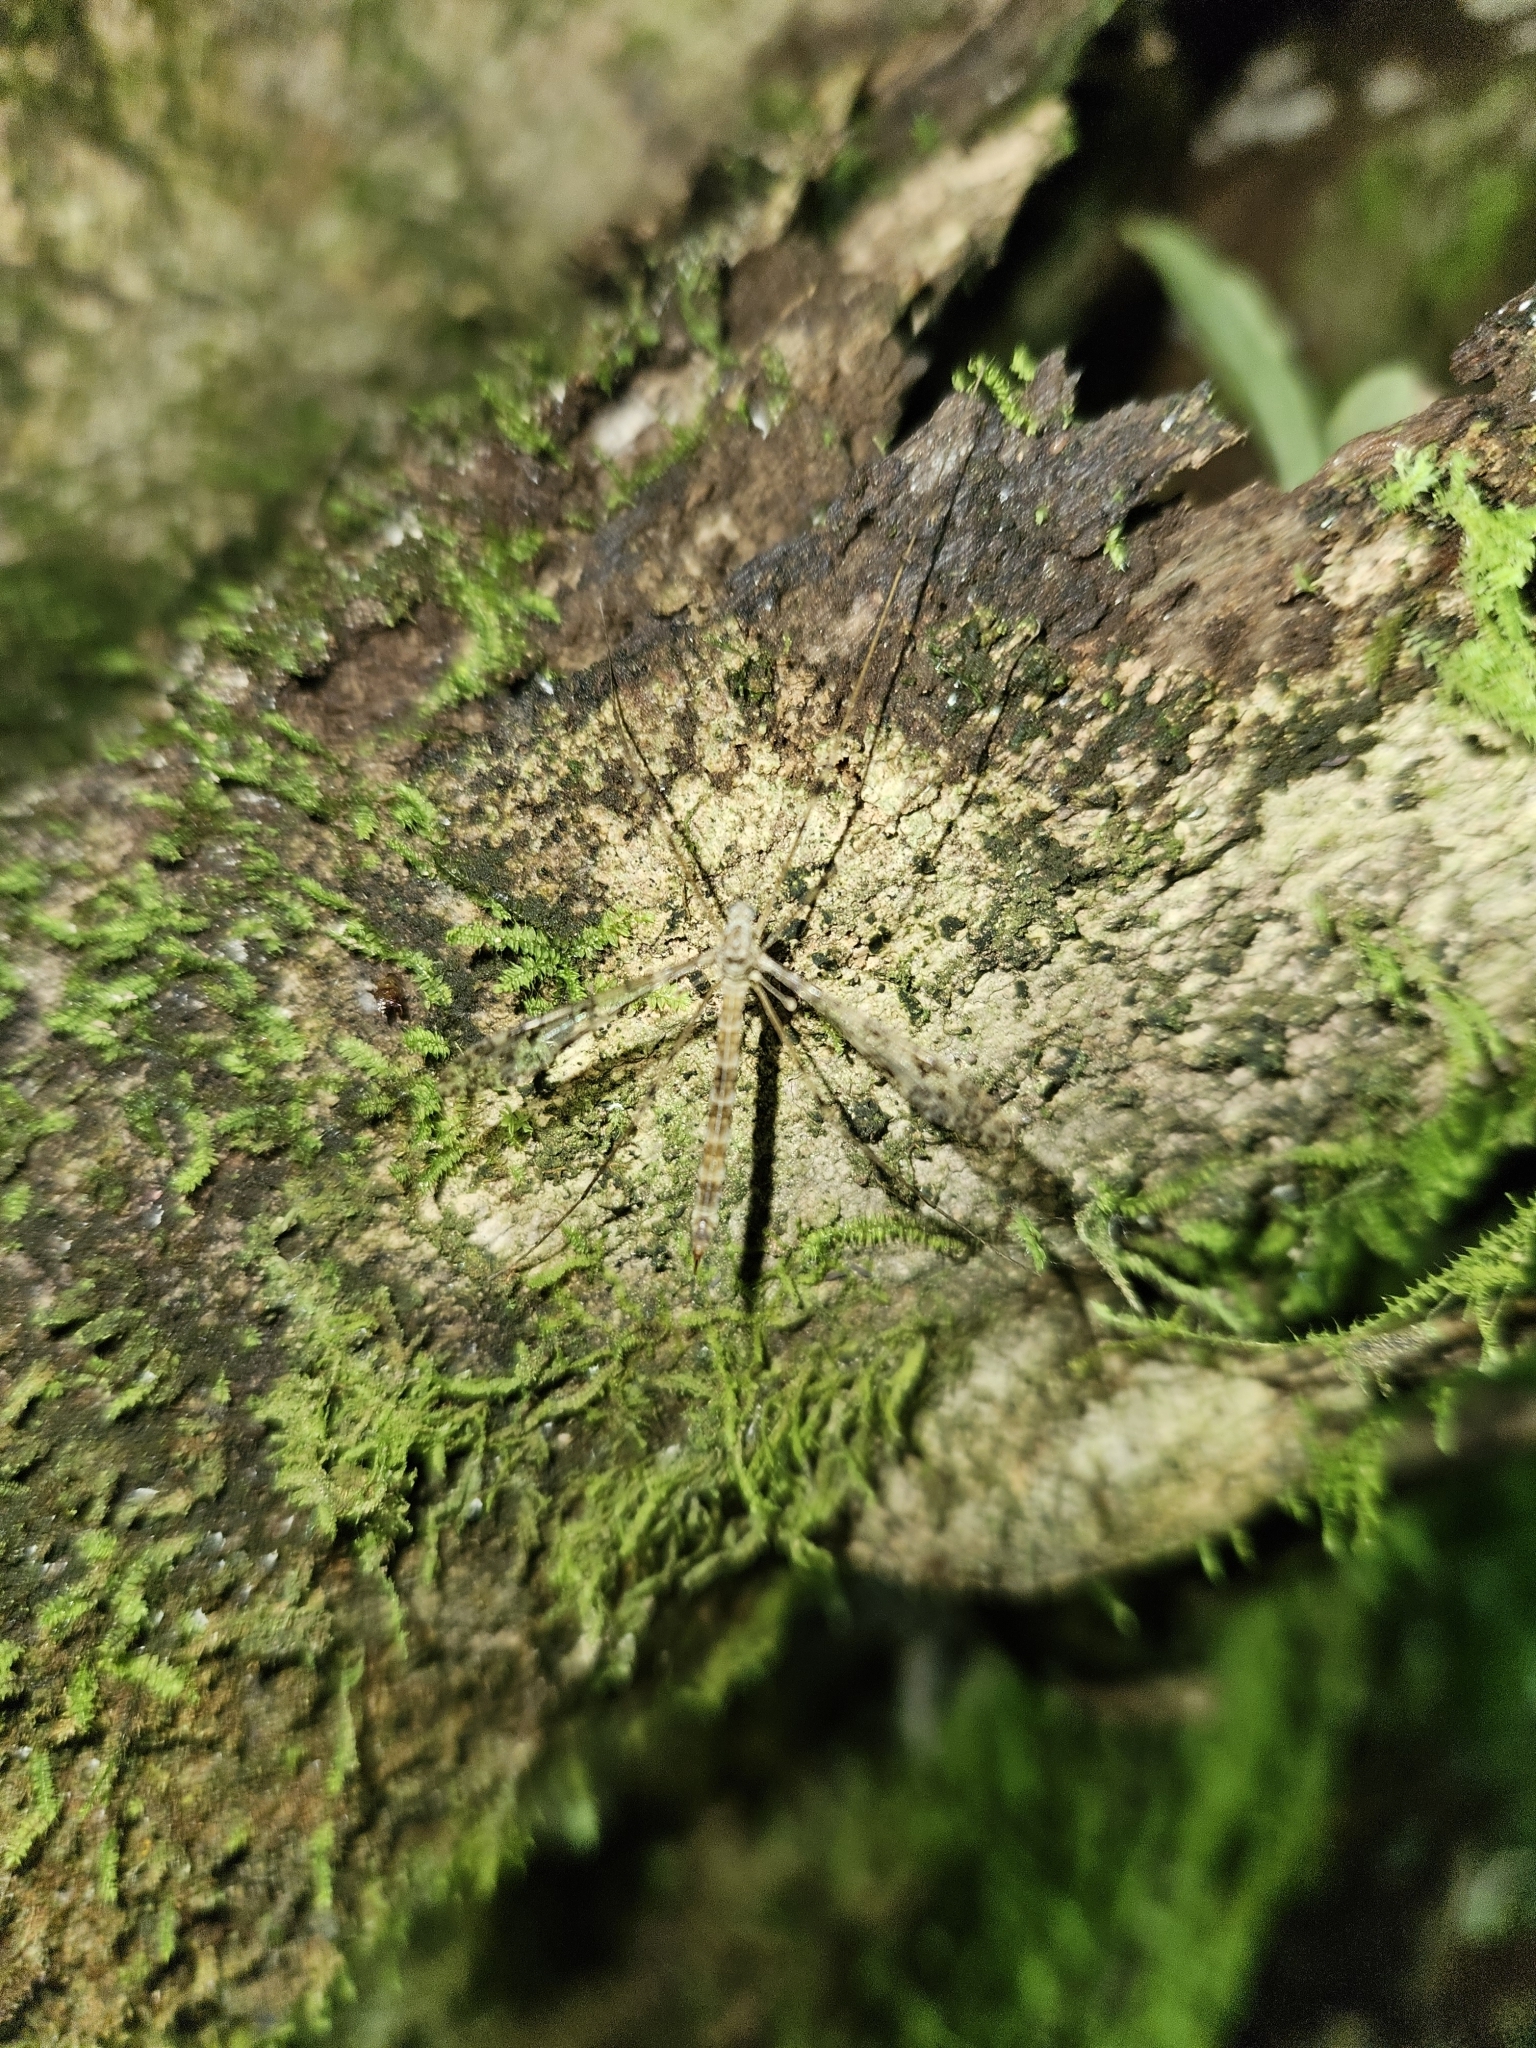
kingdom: Animalia
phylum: Arthropoda
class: Insecta
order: Diptera
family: Limoniidae
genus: Austrolimnophila
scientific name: Austrolimnophila argus
